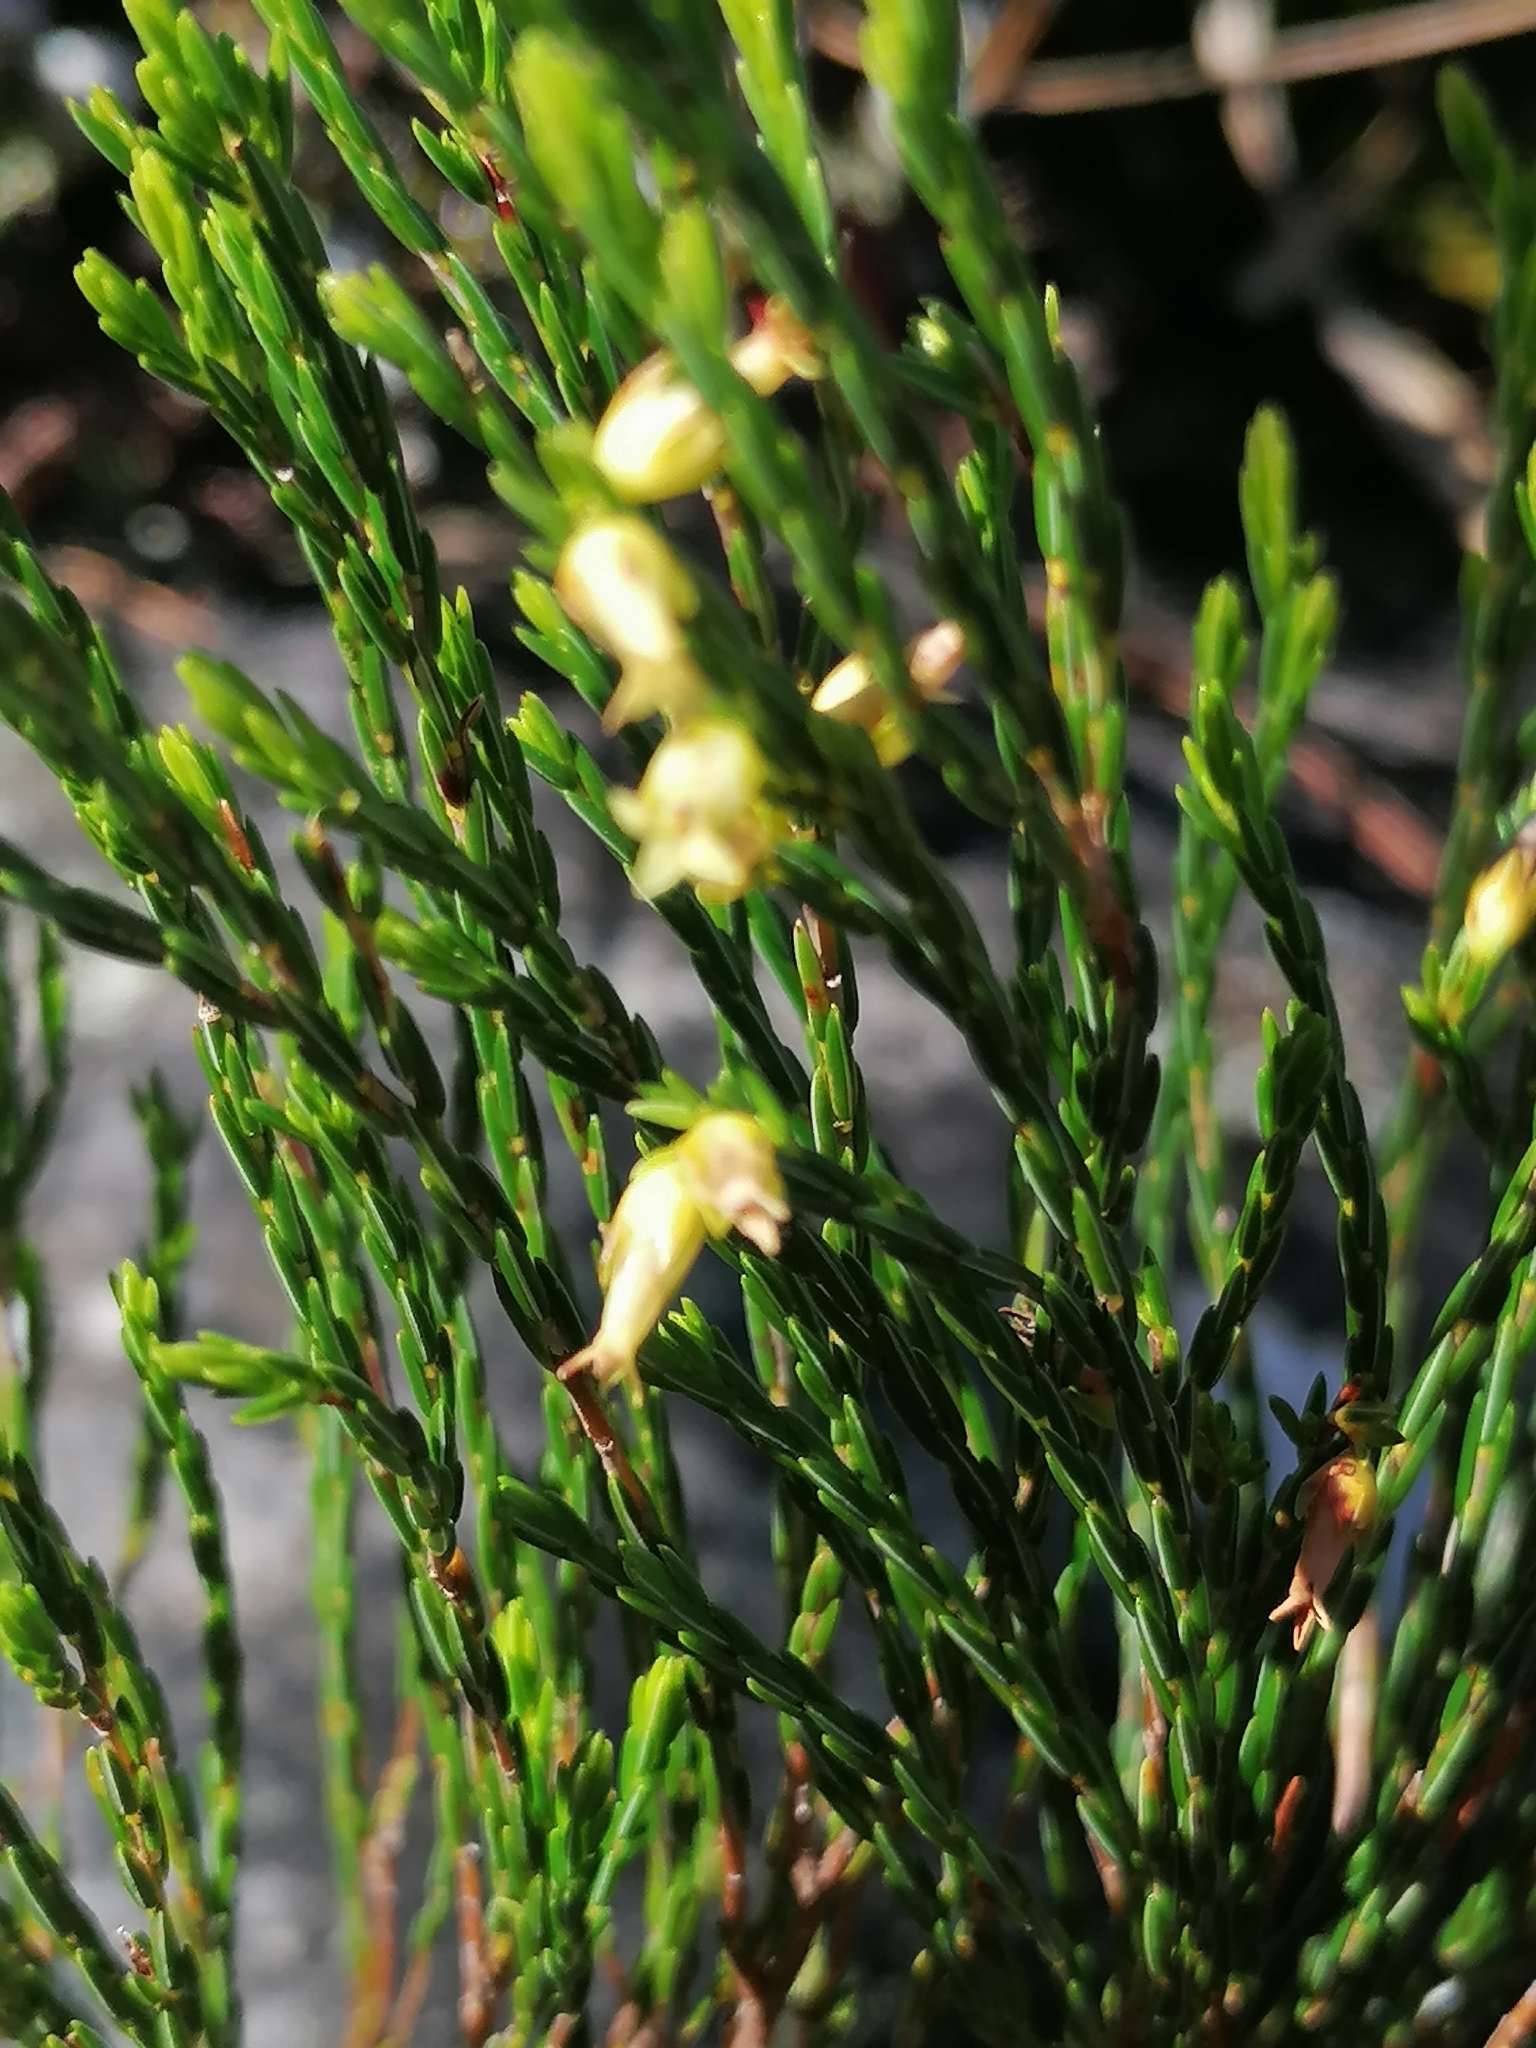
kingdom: Plantae
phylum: Tracheophyta
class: Magnoliopsida
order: Ericales
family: Ericaceae
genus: Erica
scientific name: Erica lutea
